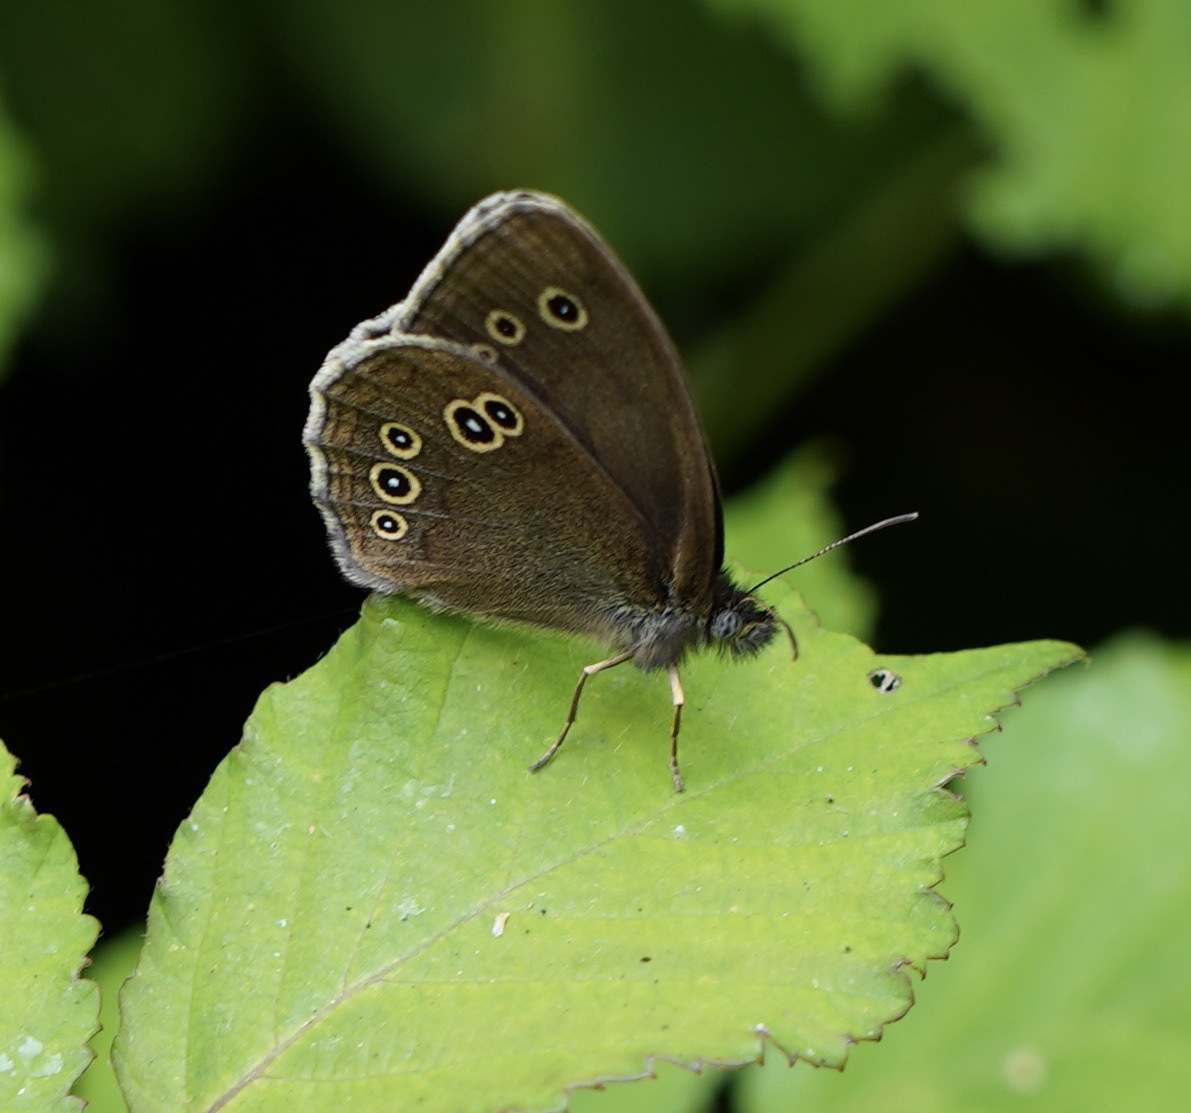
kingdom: Animalia
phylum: Arthropoda
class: Insecta
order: Lepidoptera
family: Nymphalidae
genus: Aphantopus
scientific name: Aphantopus hyperantus
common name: Ringlet
